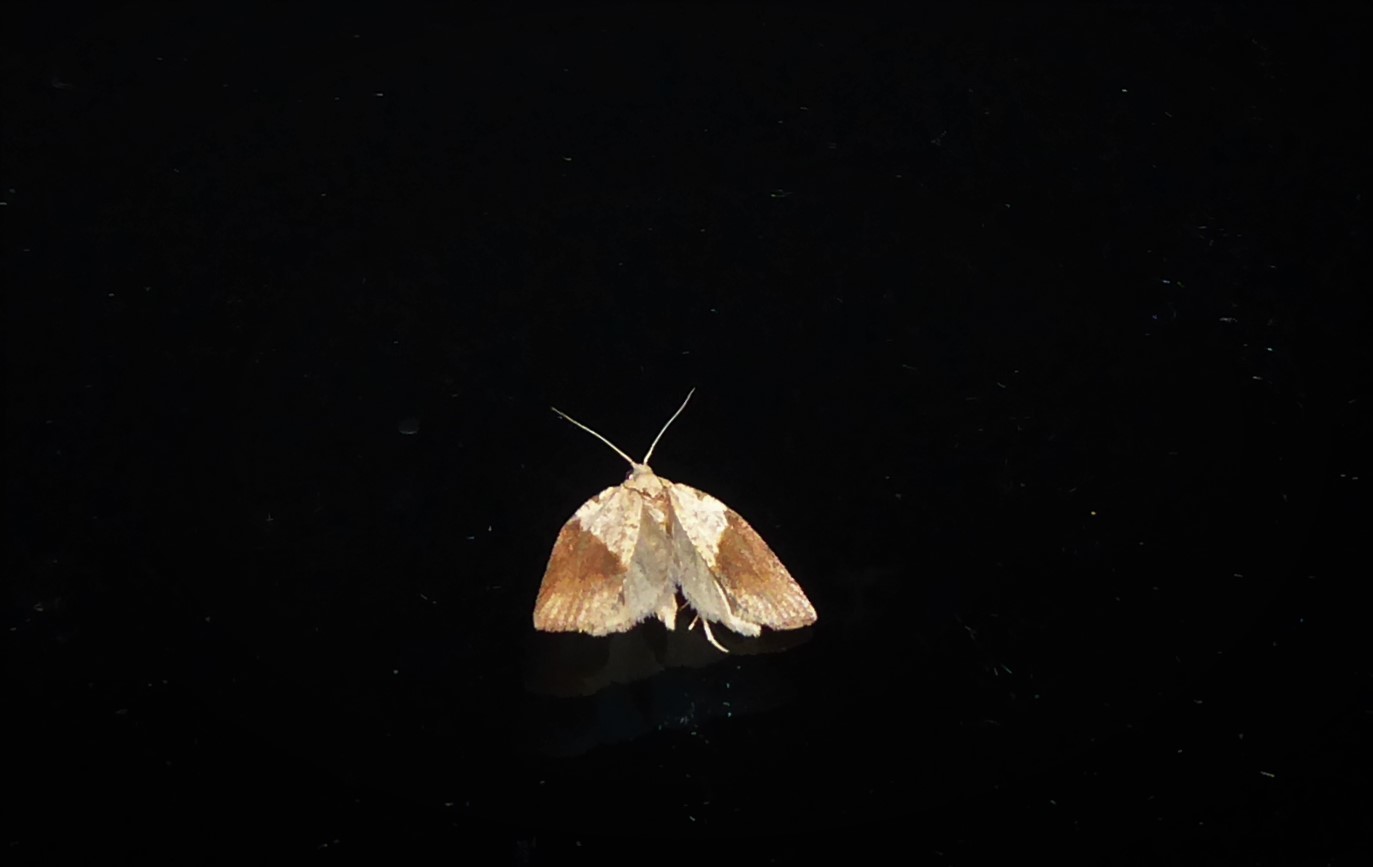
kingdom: Animalia
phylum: Arthropoda
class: Insecta
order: Lepidoptera
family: Tortricidae
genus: Epiphyas
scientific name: Epiphyas postvittana
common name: Light brown apple moth
